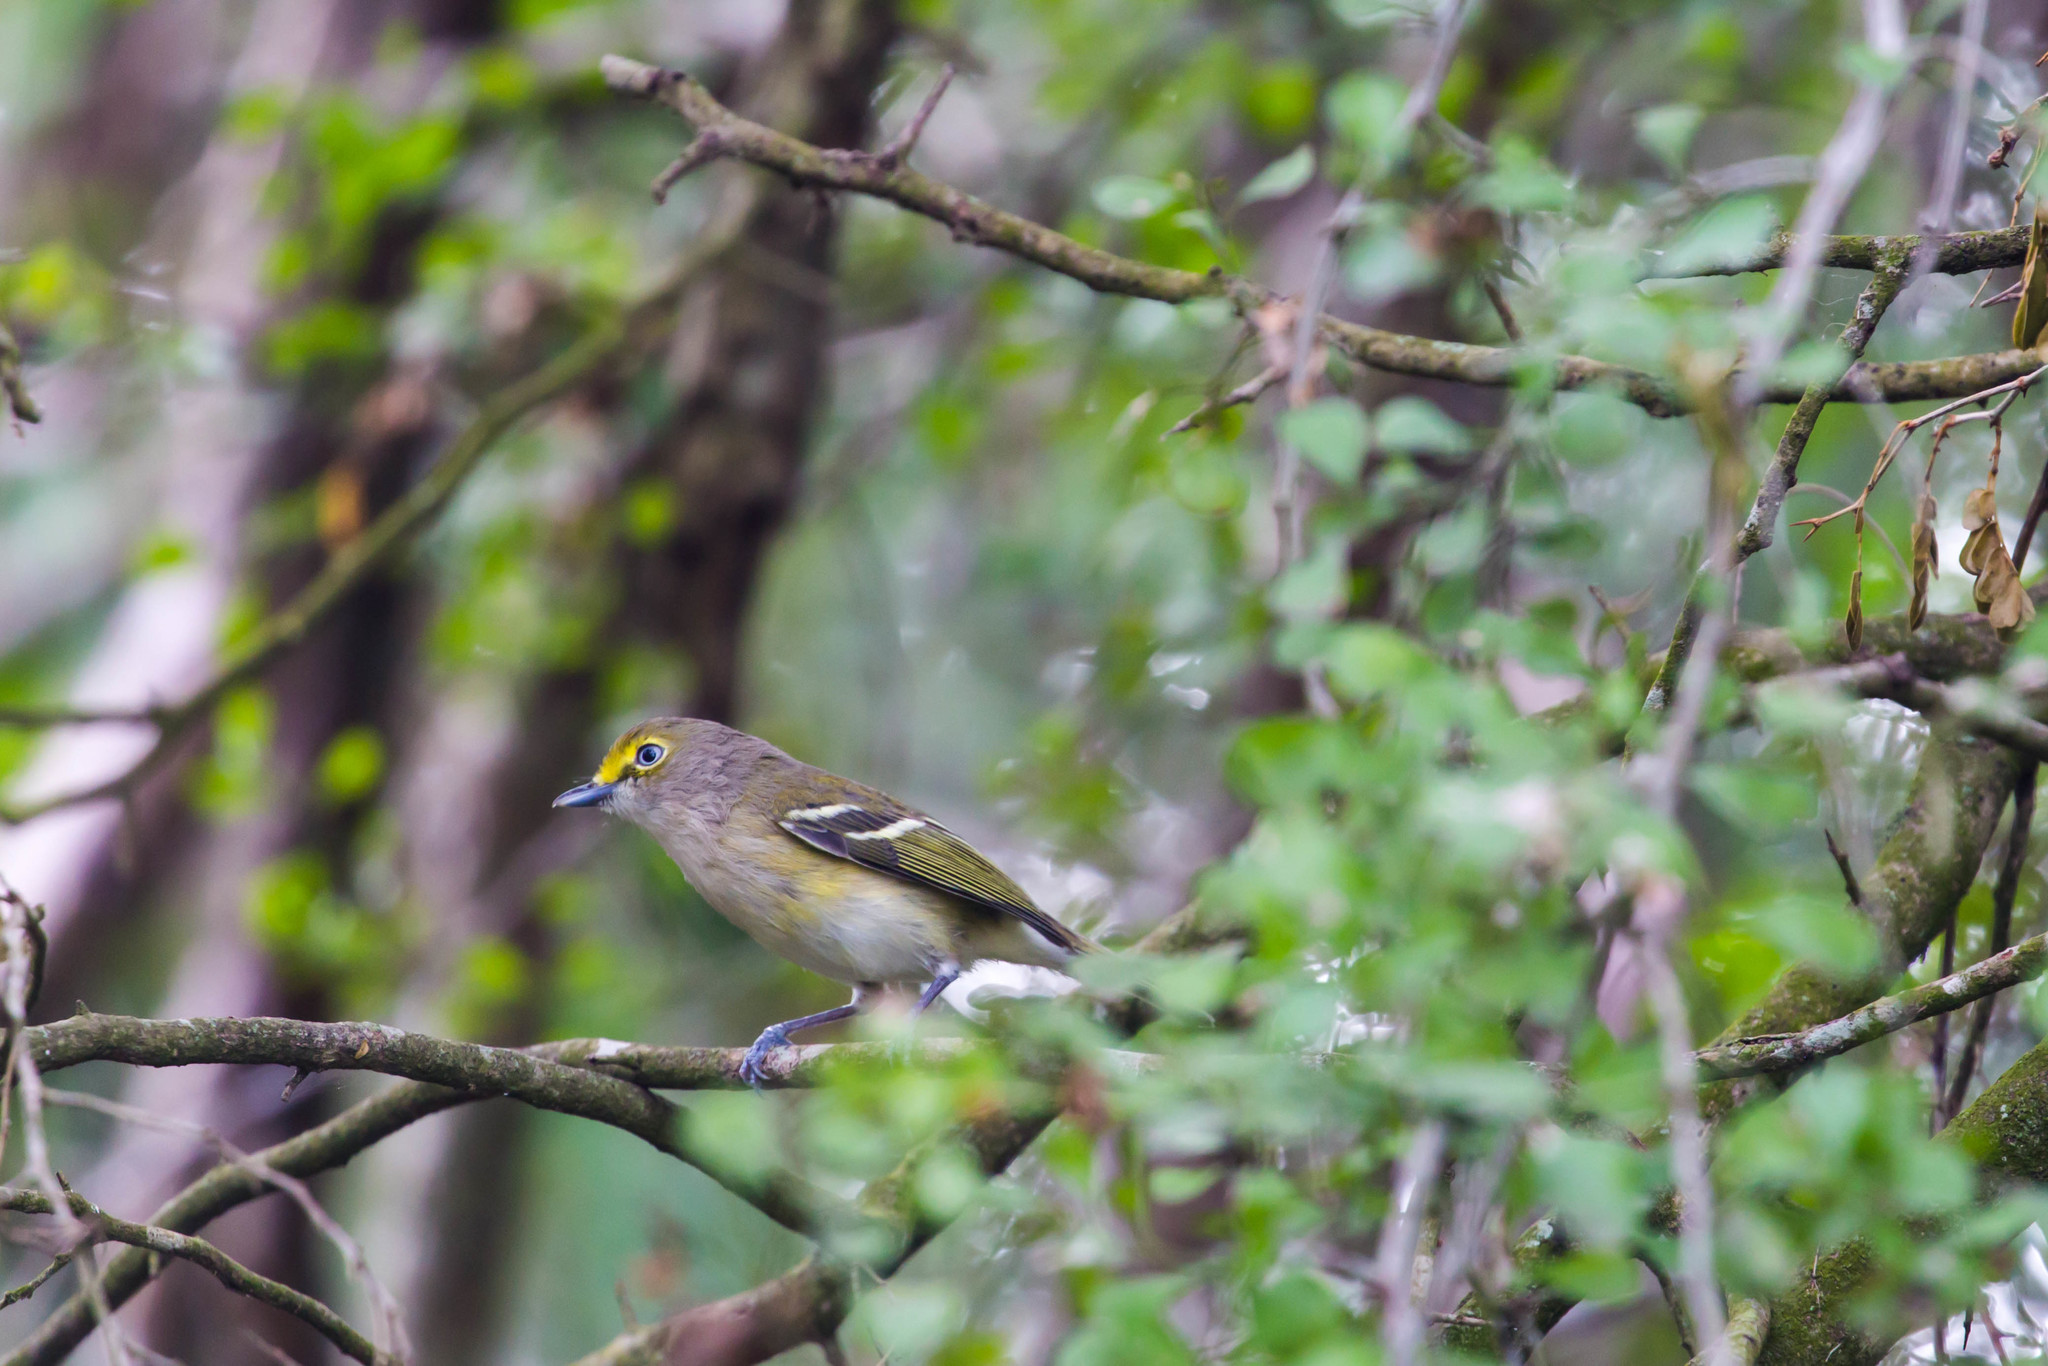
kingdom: Animalia
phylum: Chordata
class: Aves
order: Passeriformes
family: Vireonidae
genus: Vireo
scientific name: Vireo griseus
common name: White-eyed vireo
